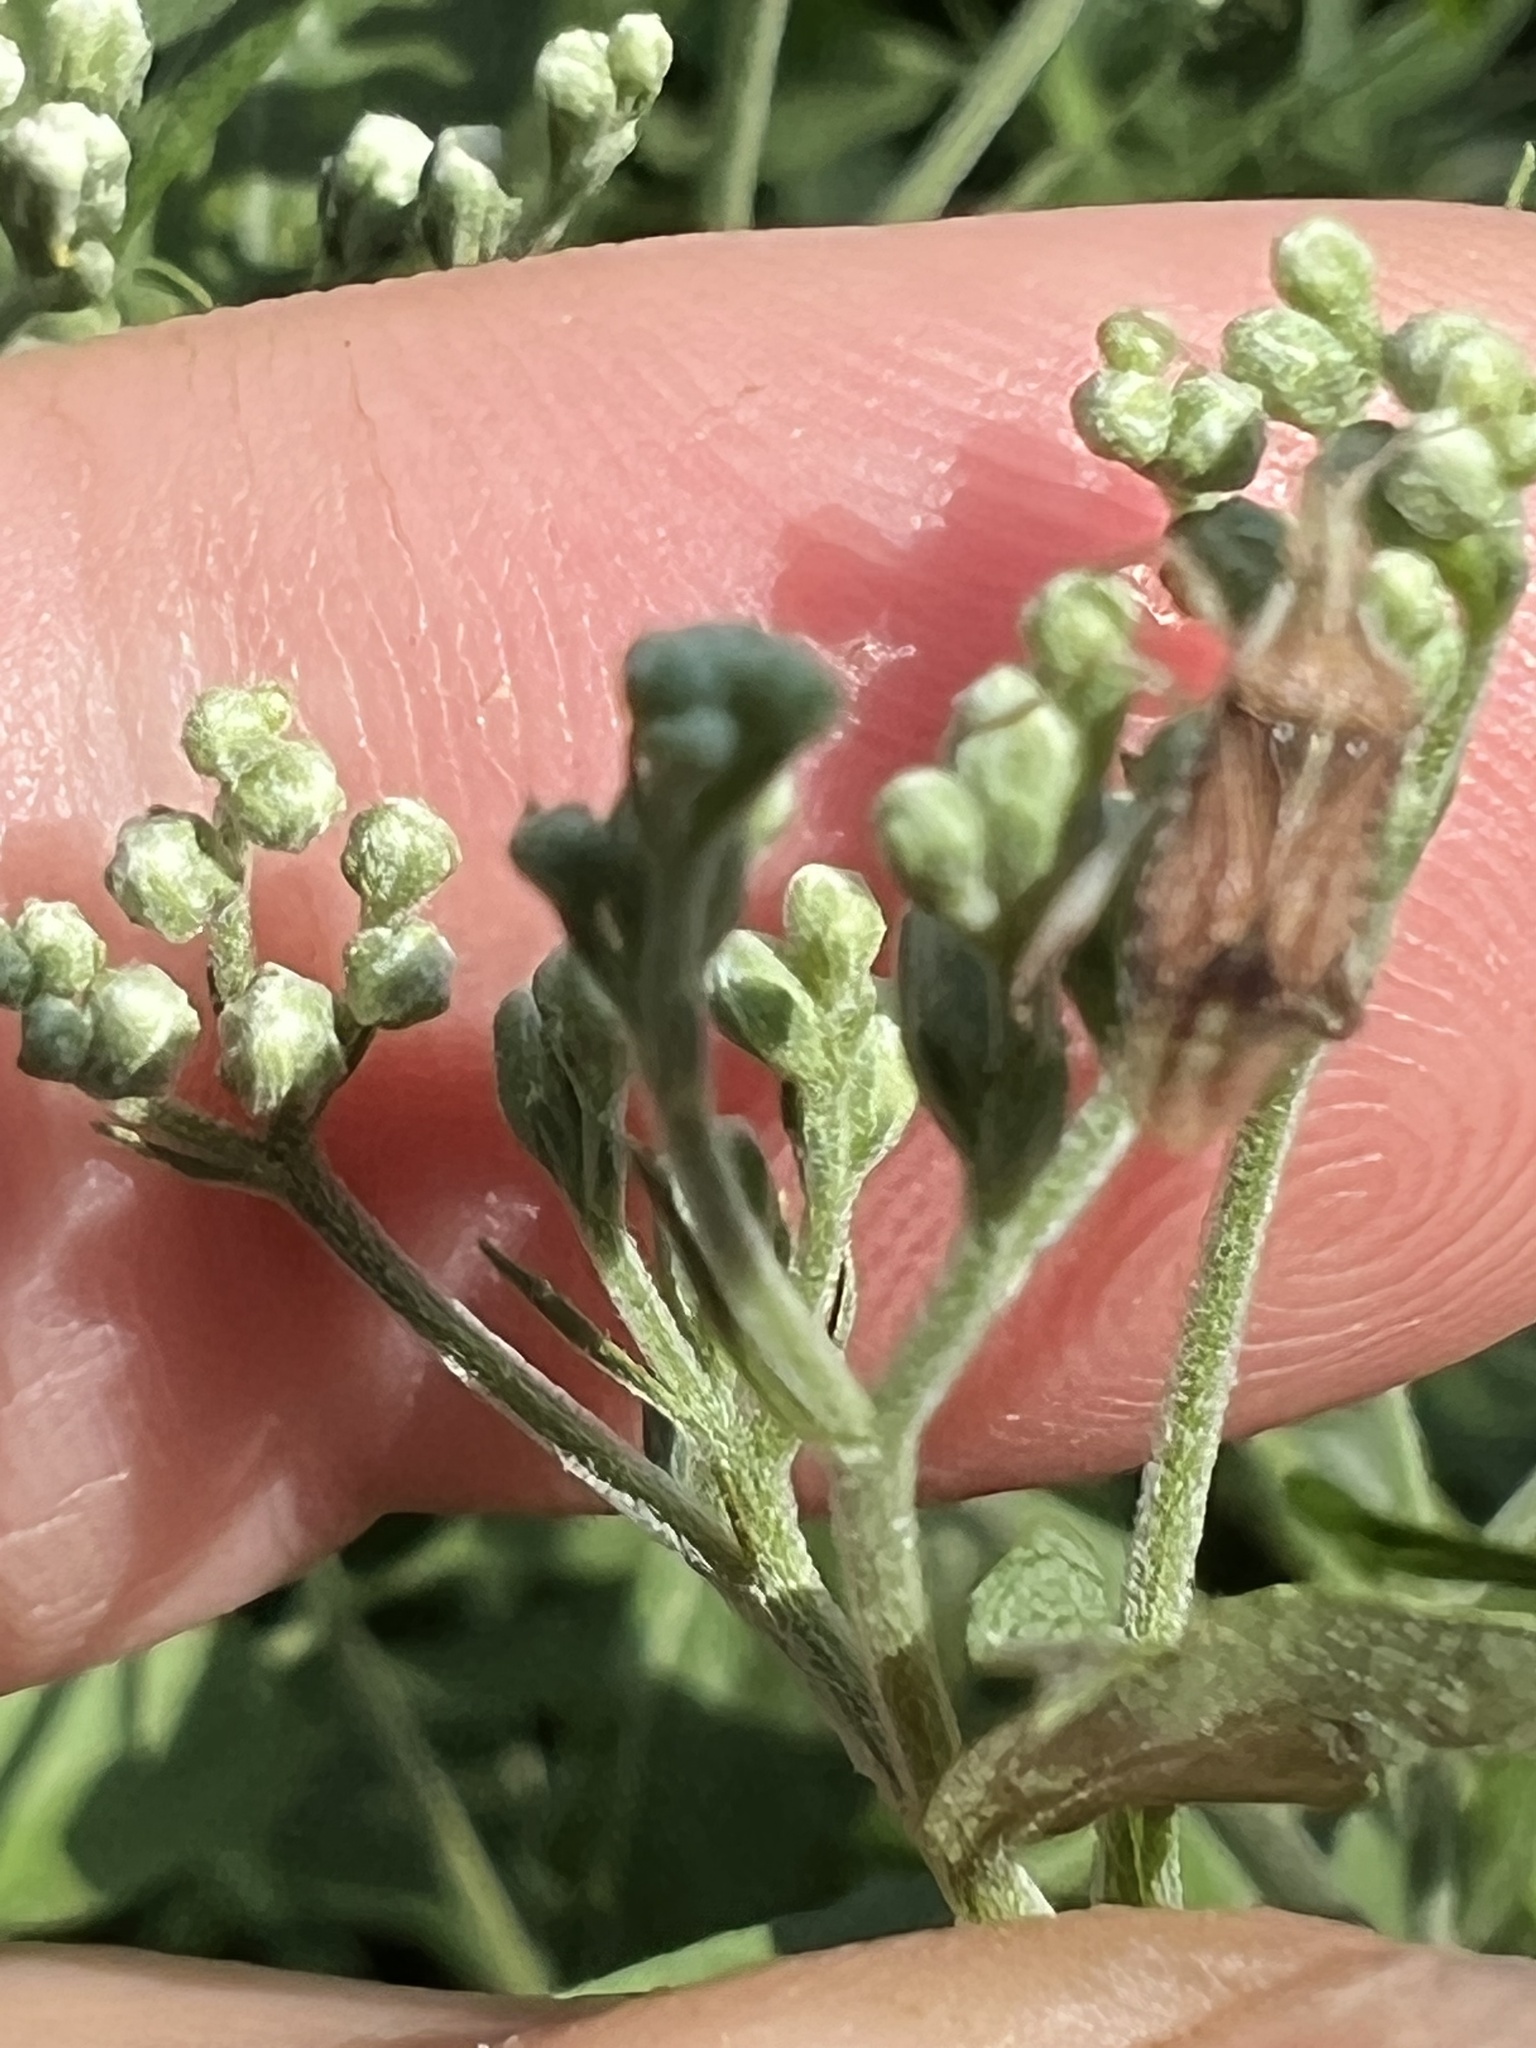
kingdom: Animalia
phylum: Arthropoda
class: Insecta
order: Hemiptera
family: Rhopalidae
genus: Harmostes
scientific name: Harmostes fraterculus
